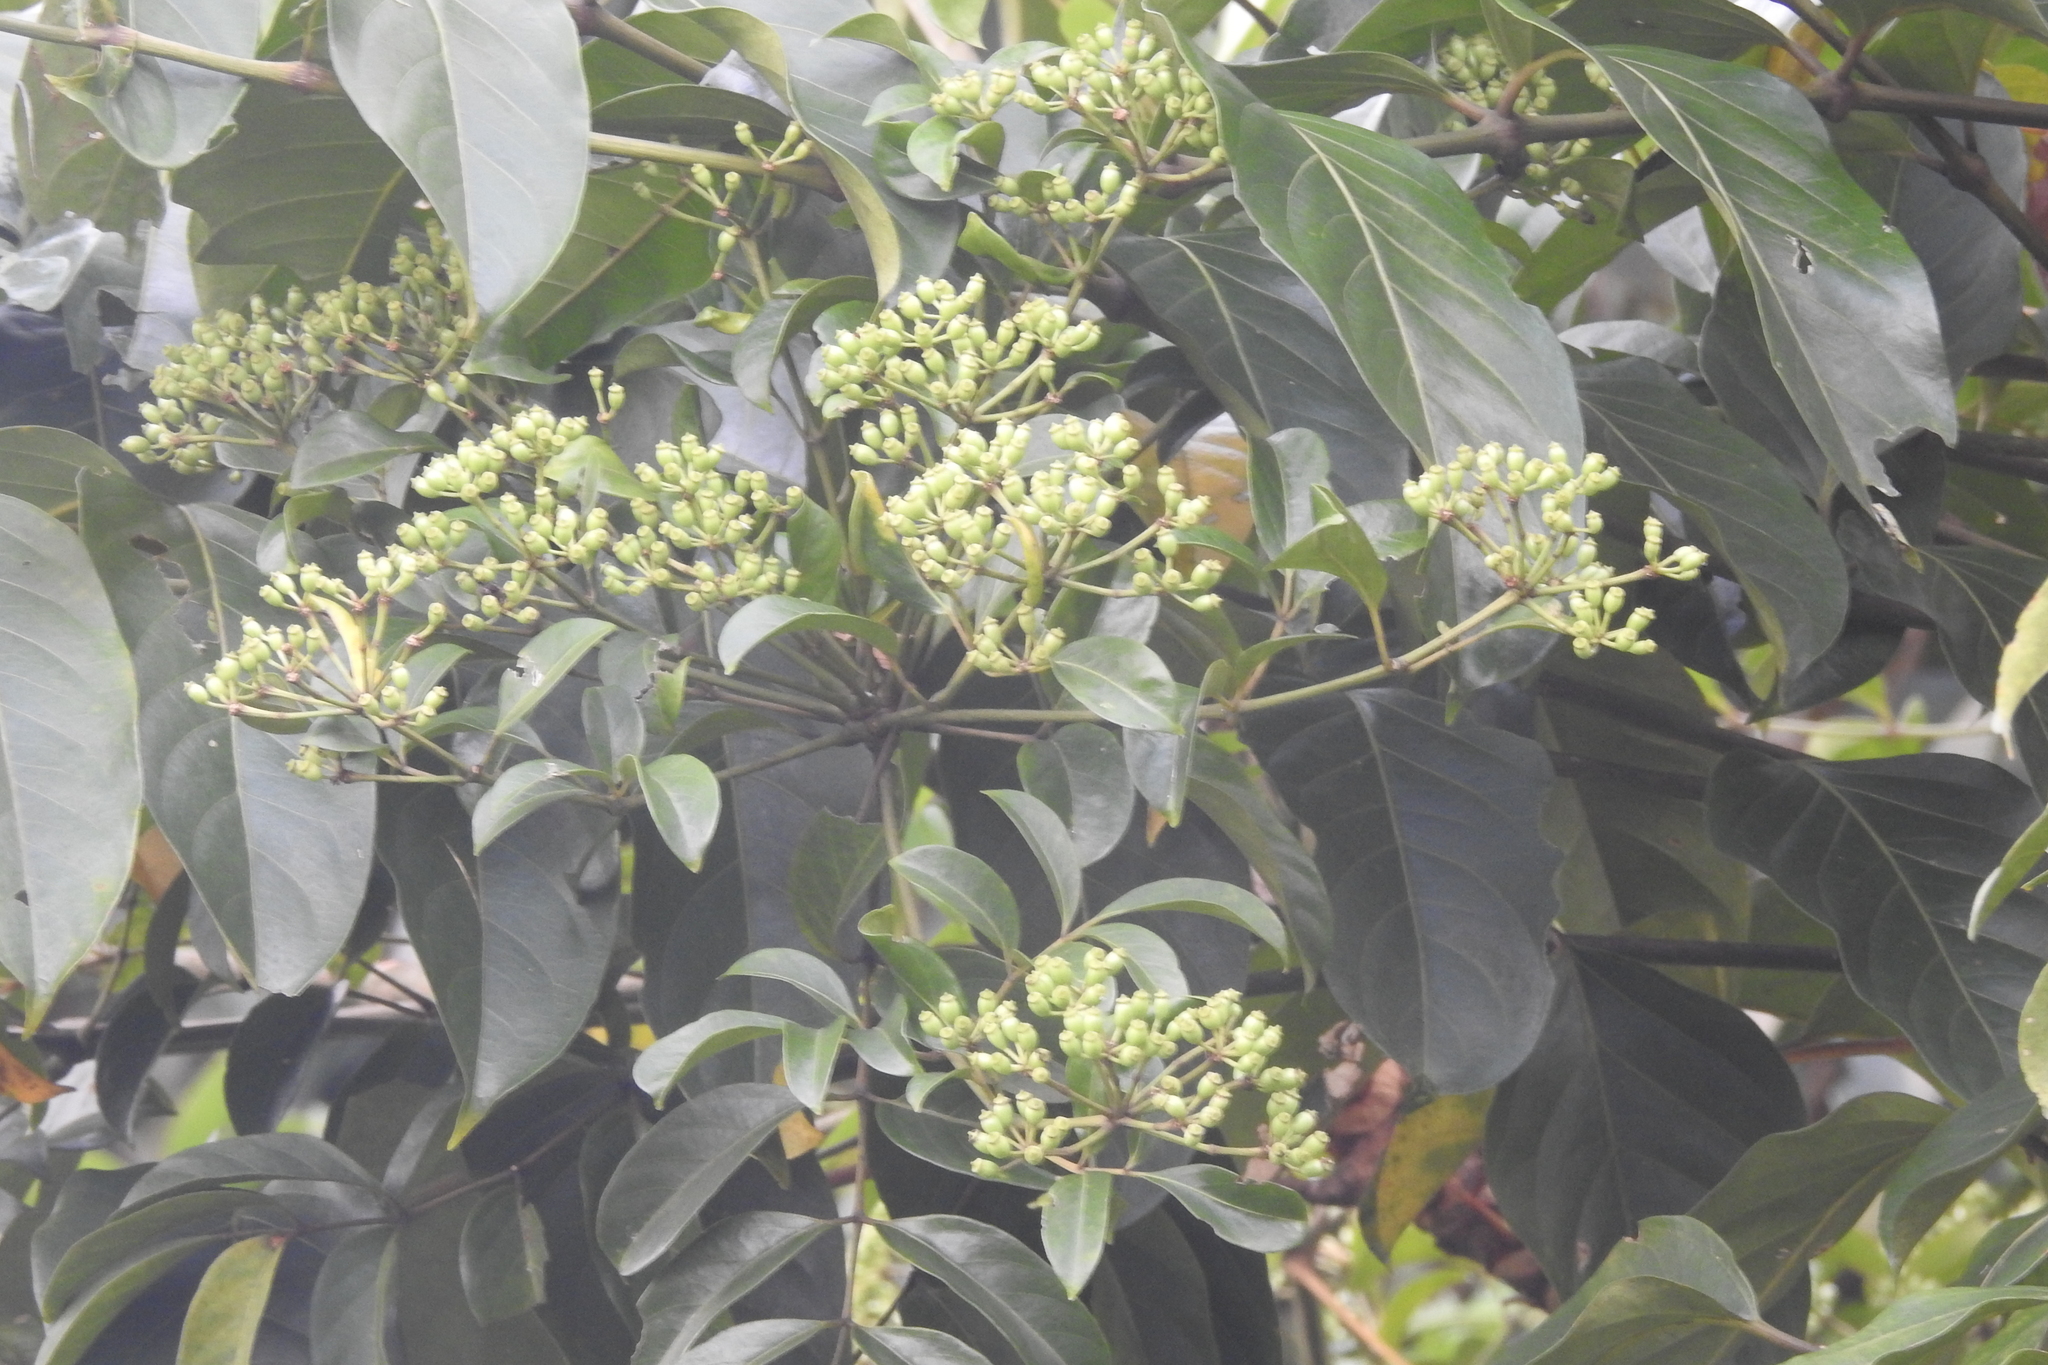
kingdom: Plantae
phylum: Tracheophyta
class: Magnoliopsida
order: Apiales
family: Araliaceae
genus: Polyscias
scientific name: Polyscias diversifolia
